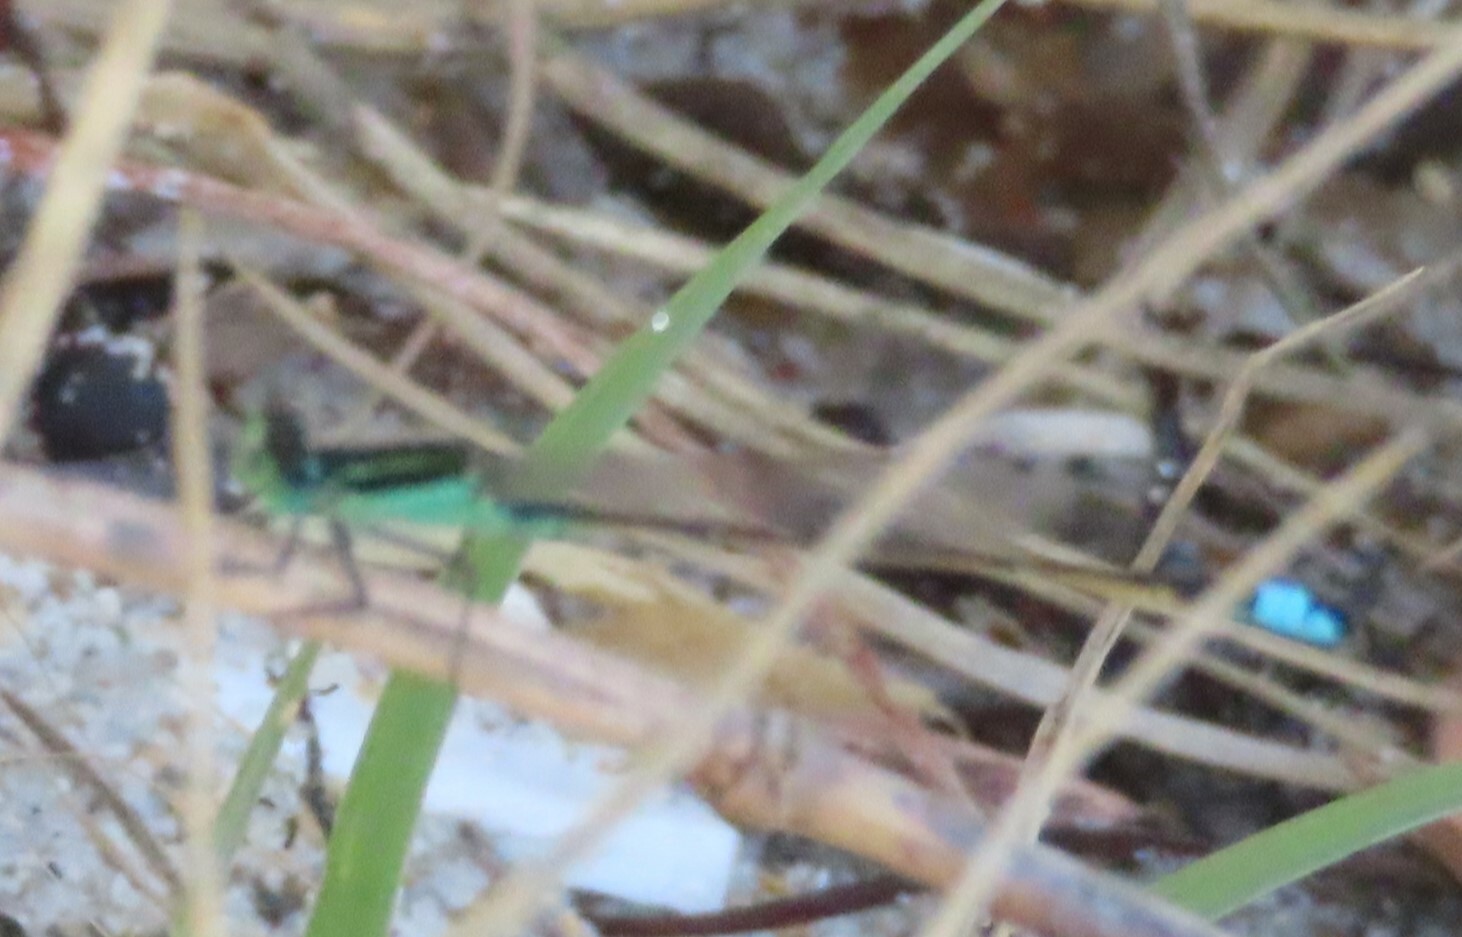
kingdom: Animalia
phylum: Arthropoda
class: Insecta
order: Odonata
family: Coenagrionidae
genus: Ischnura
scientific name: Ischnura ramburii
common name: Rambur's forktail
